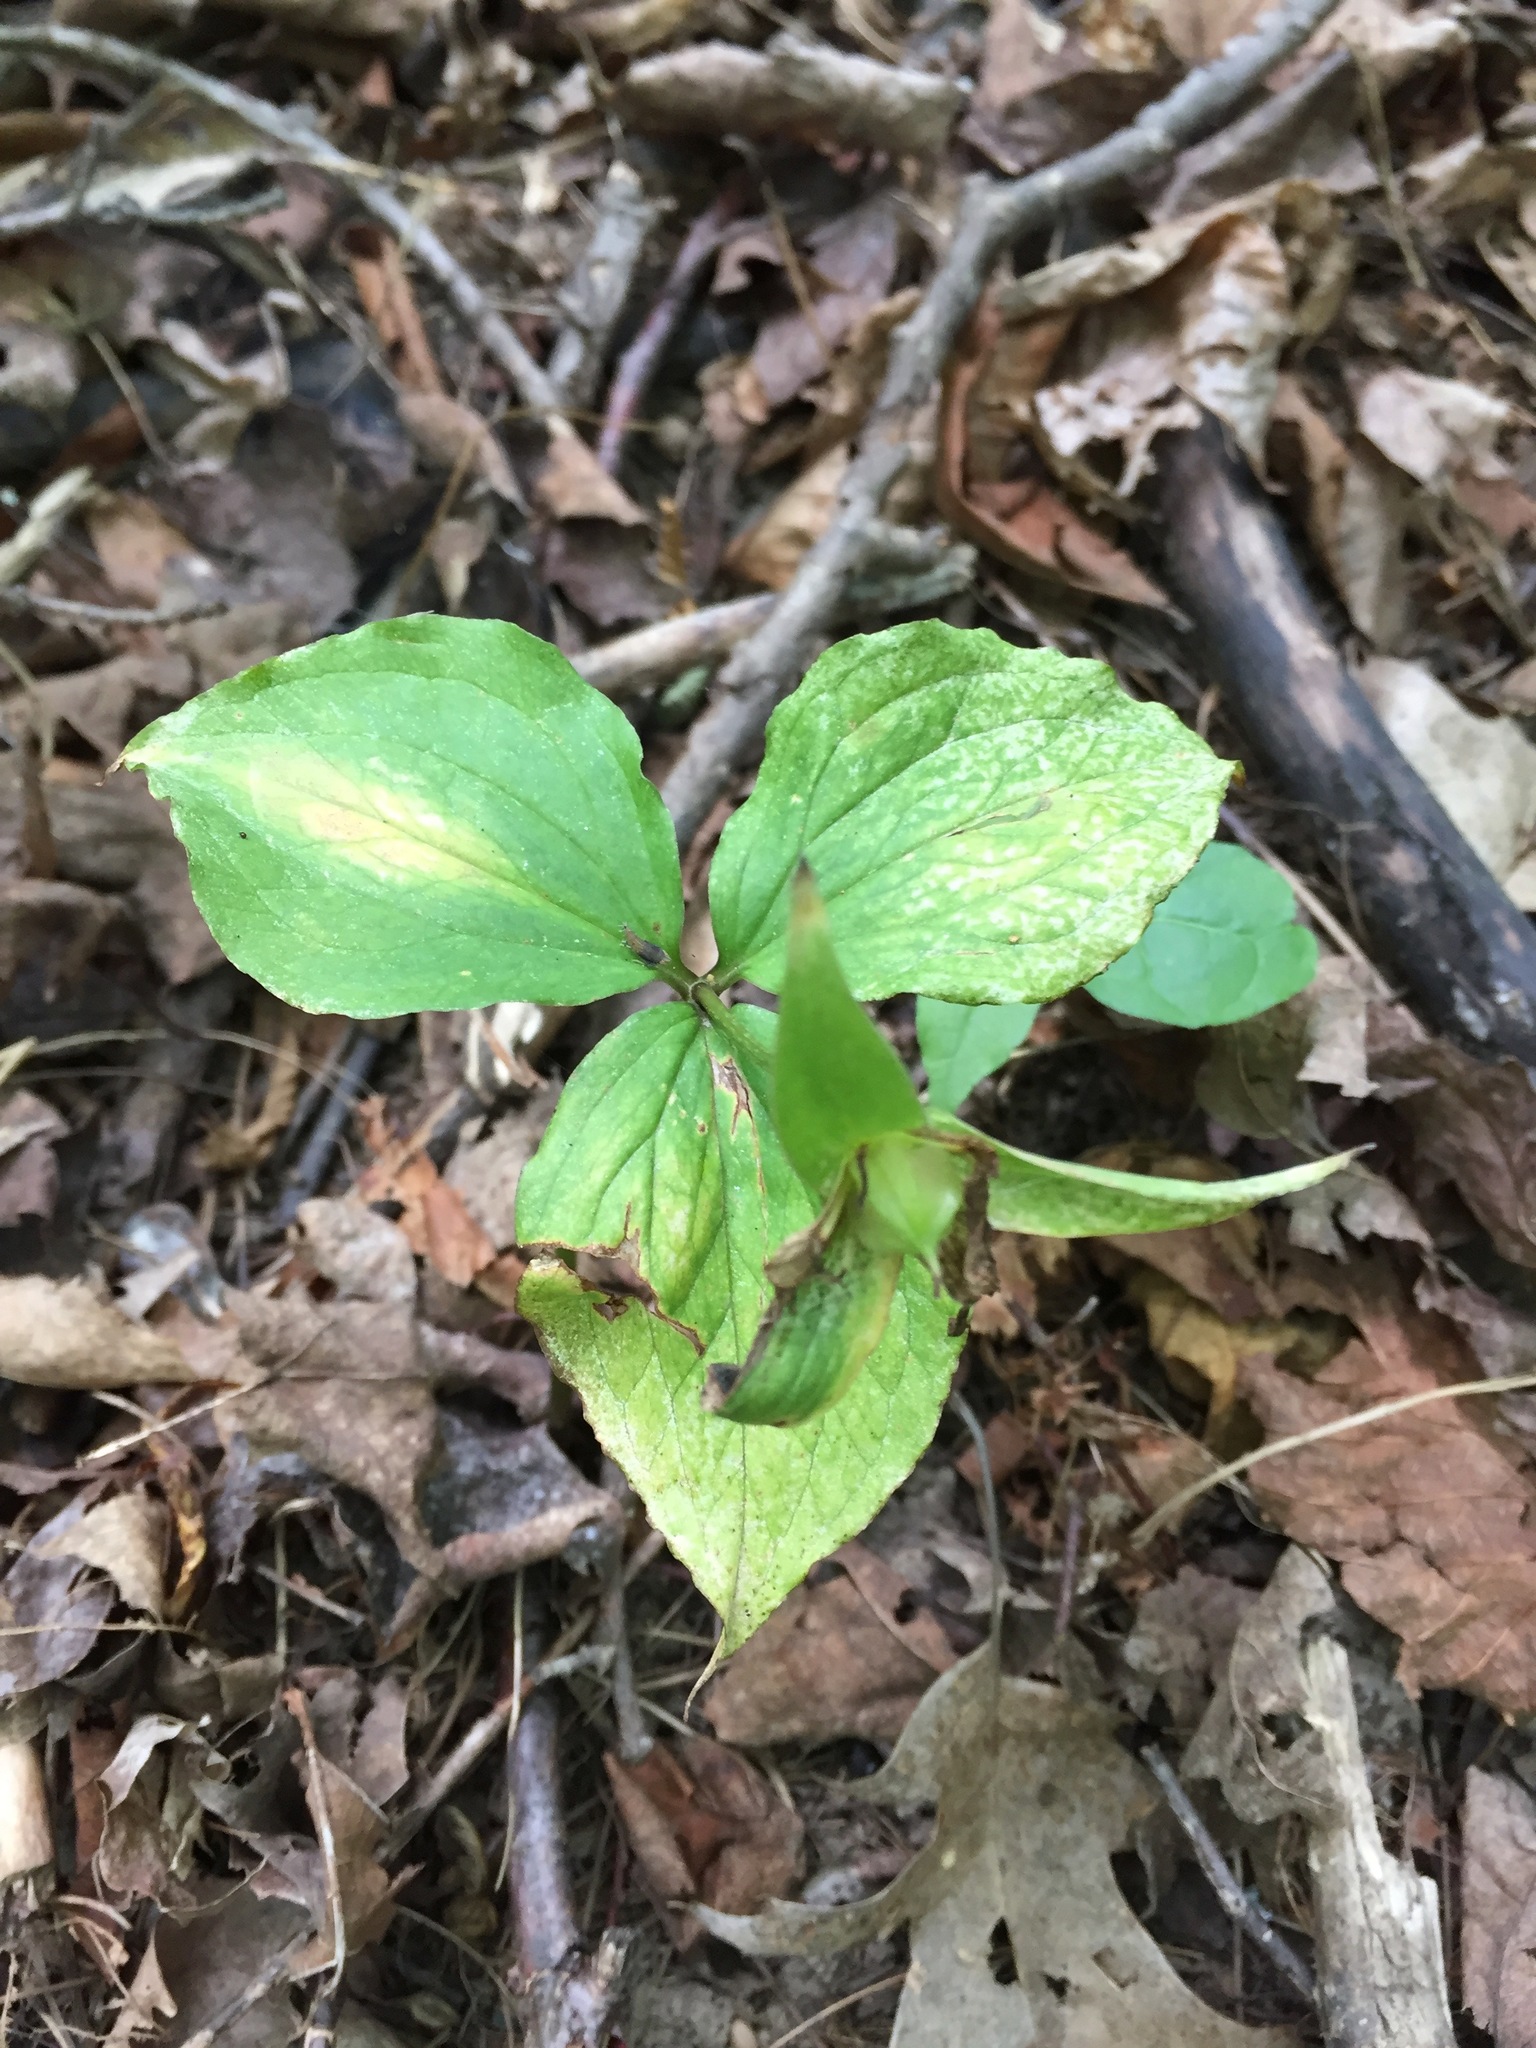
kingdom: Plantae
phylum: Tracheophyta
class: Liliopsida
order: Liliales
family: Melanthiaceae
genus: Trillium
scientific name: Trillium grandiflorum
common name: Great white trillium
